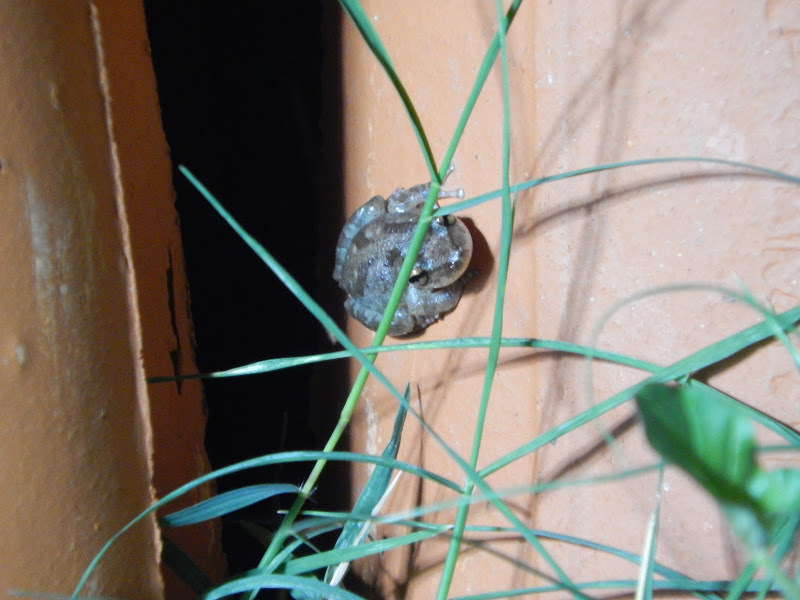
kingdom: Animalia
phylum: Chordata
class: Amphibia
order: Anura
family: Hylidae
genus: Scinax
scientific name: Scinax x-signatus
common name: Venezuela snouted treefrog
